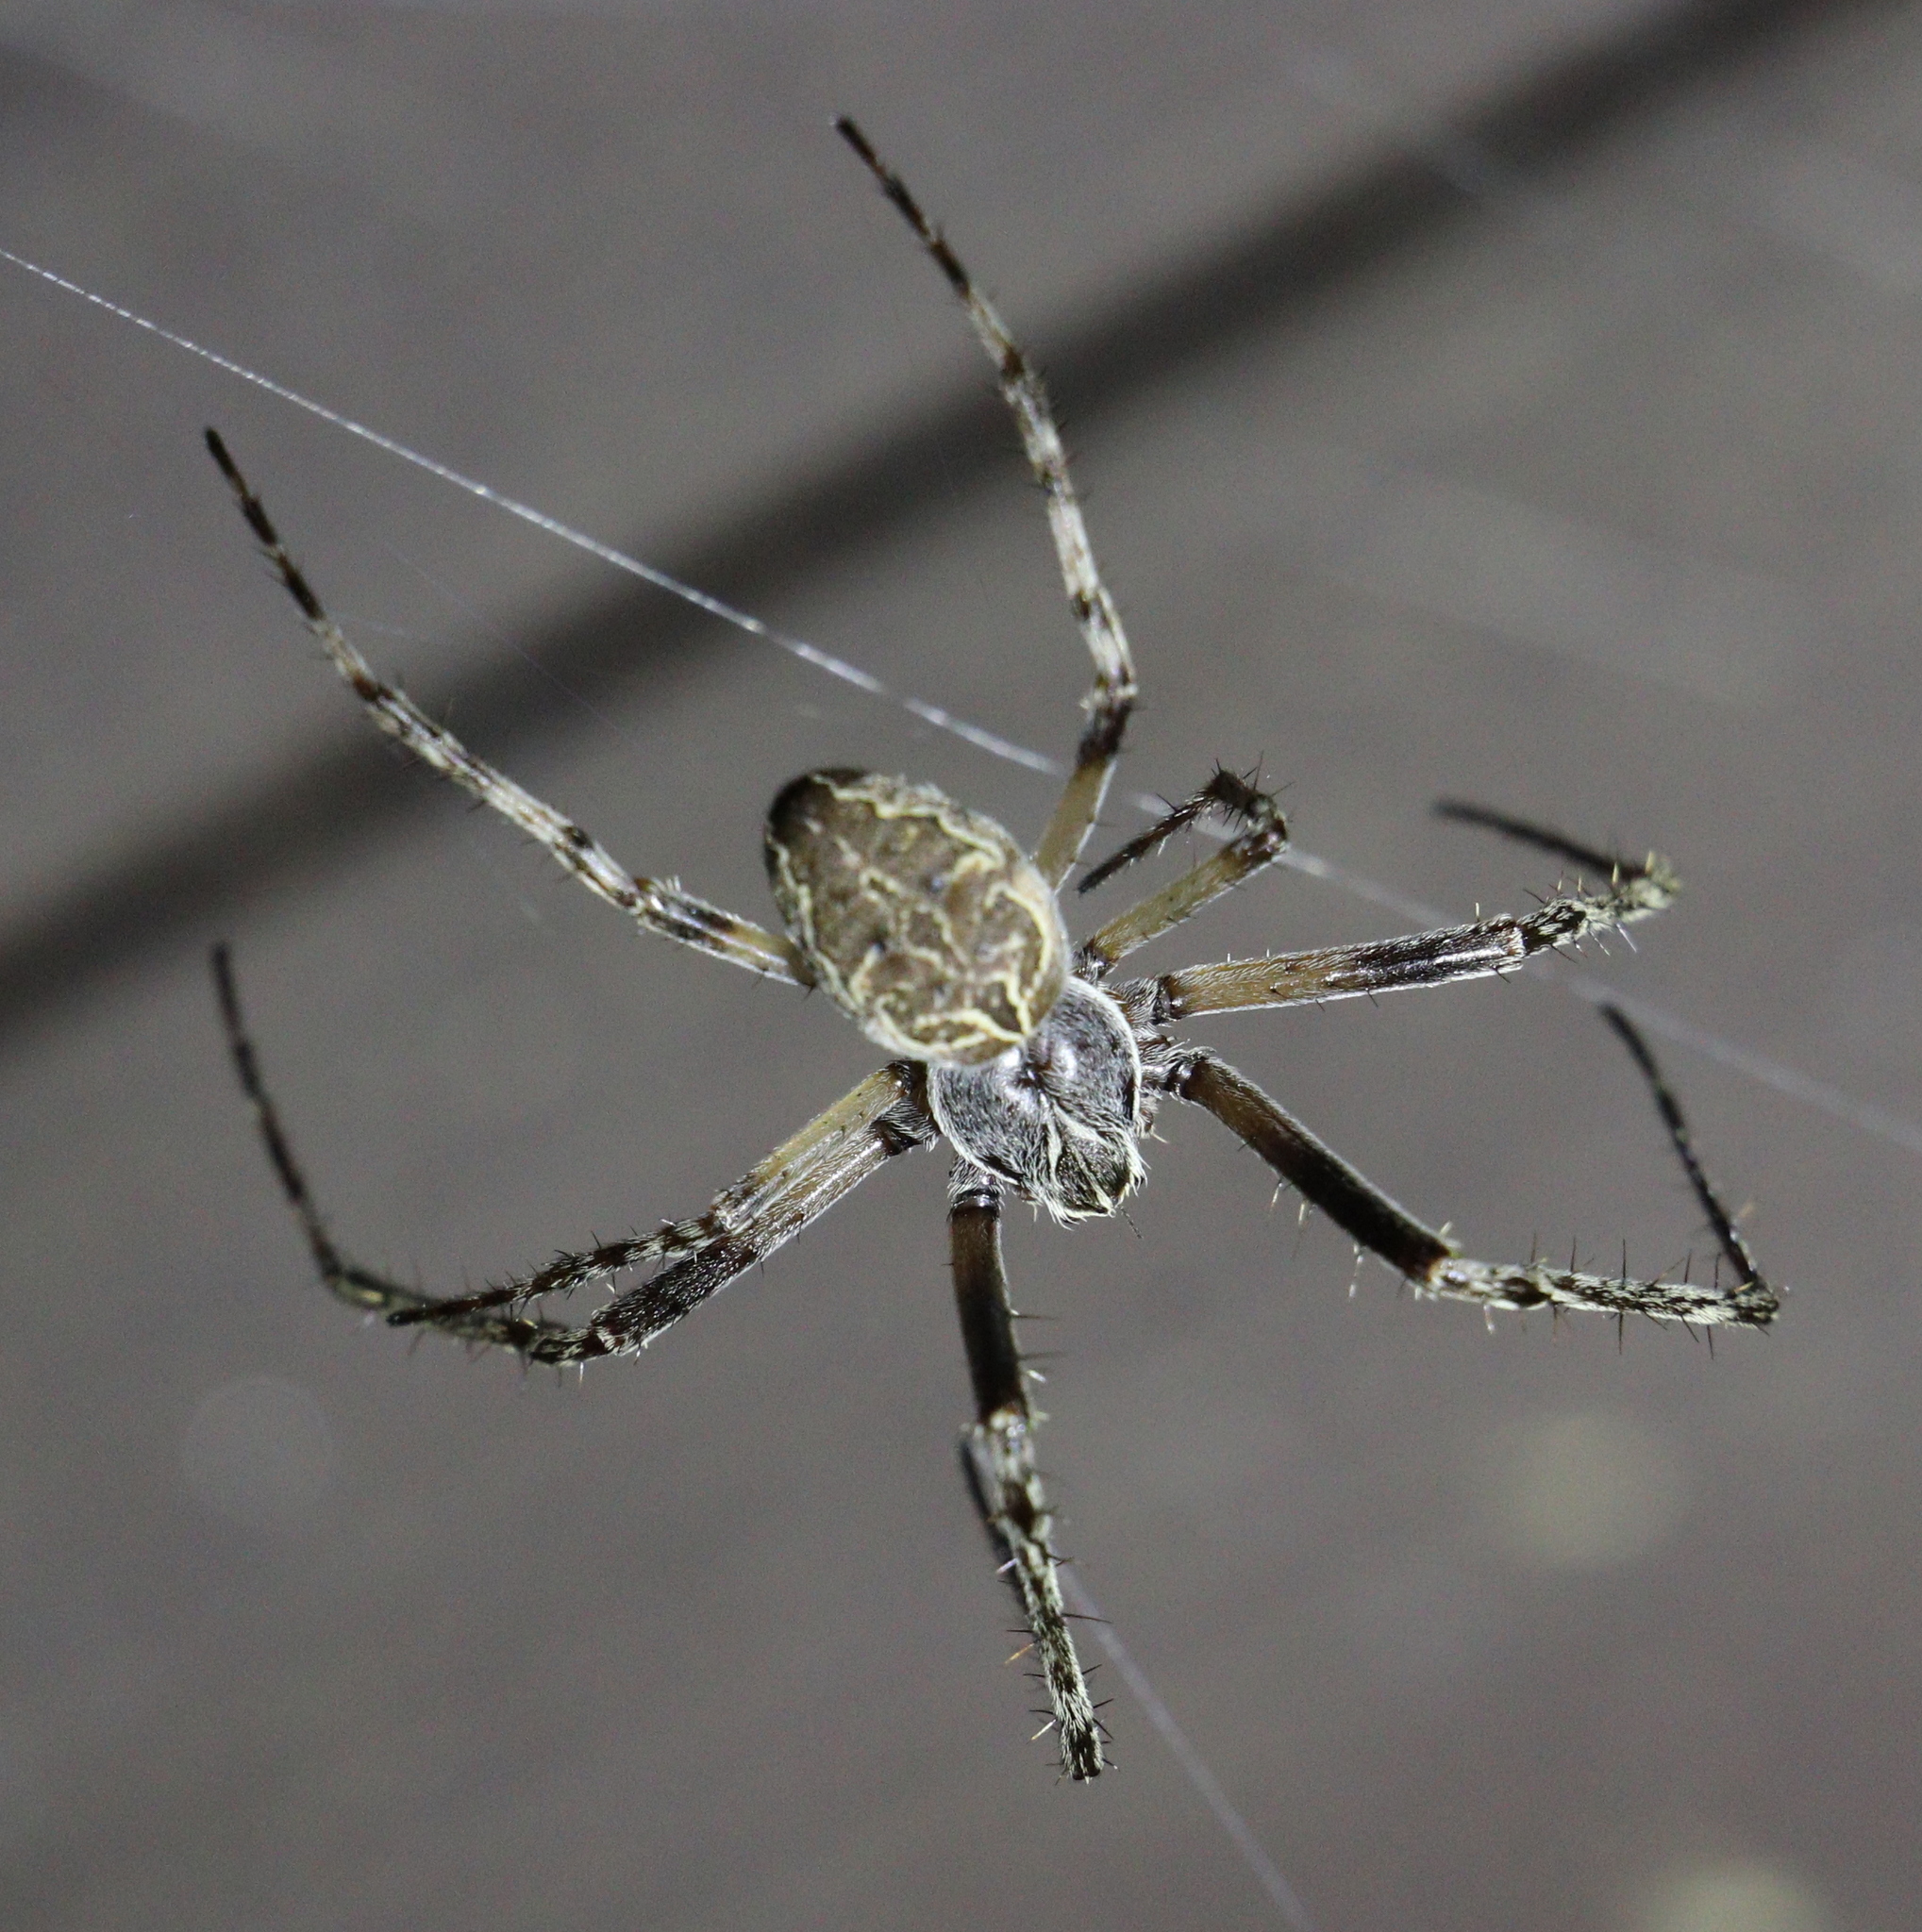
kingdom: Animalia
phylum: Arthropoda
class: Arachnida
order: Araneae
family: Araneidae
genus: Larinioides
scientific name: Larinioides sclopetarius
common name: Bridge orbweaver
